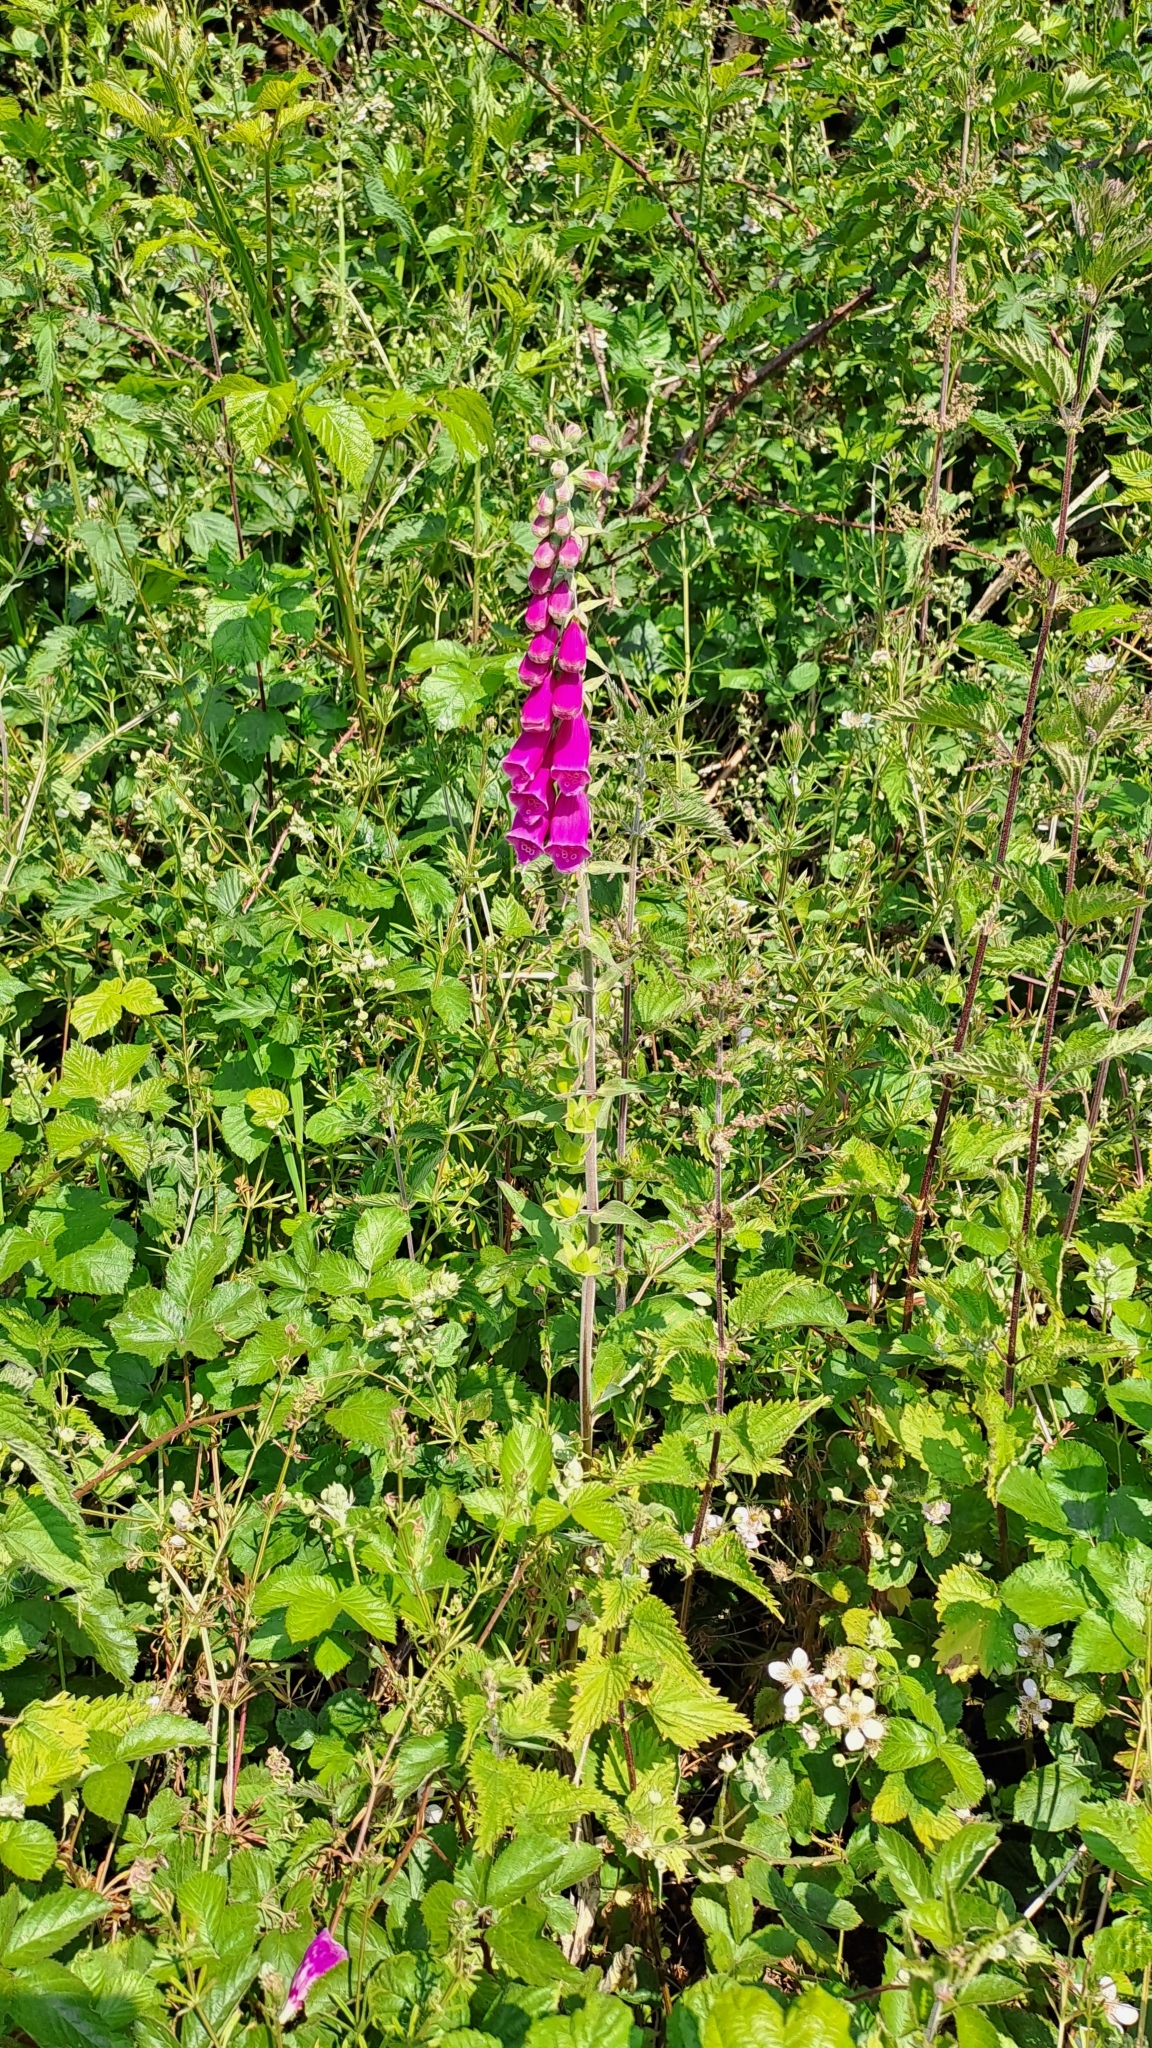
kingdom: Plantae
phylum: Tracheophyta
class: Magnoliopsida
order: Lamiales
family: Plantaginaceae
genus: Digitalis
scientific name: Digitalis purpurea
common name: Foxglove
